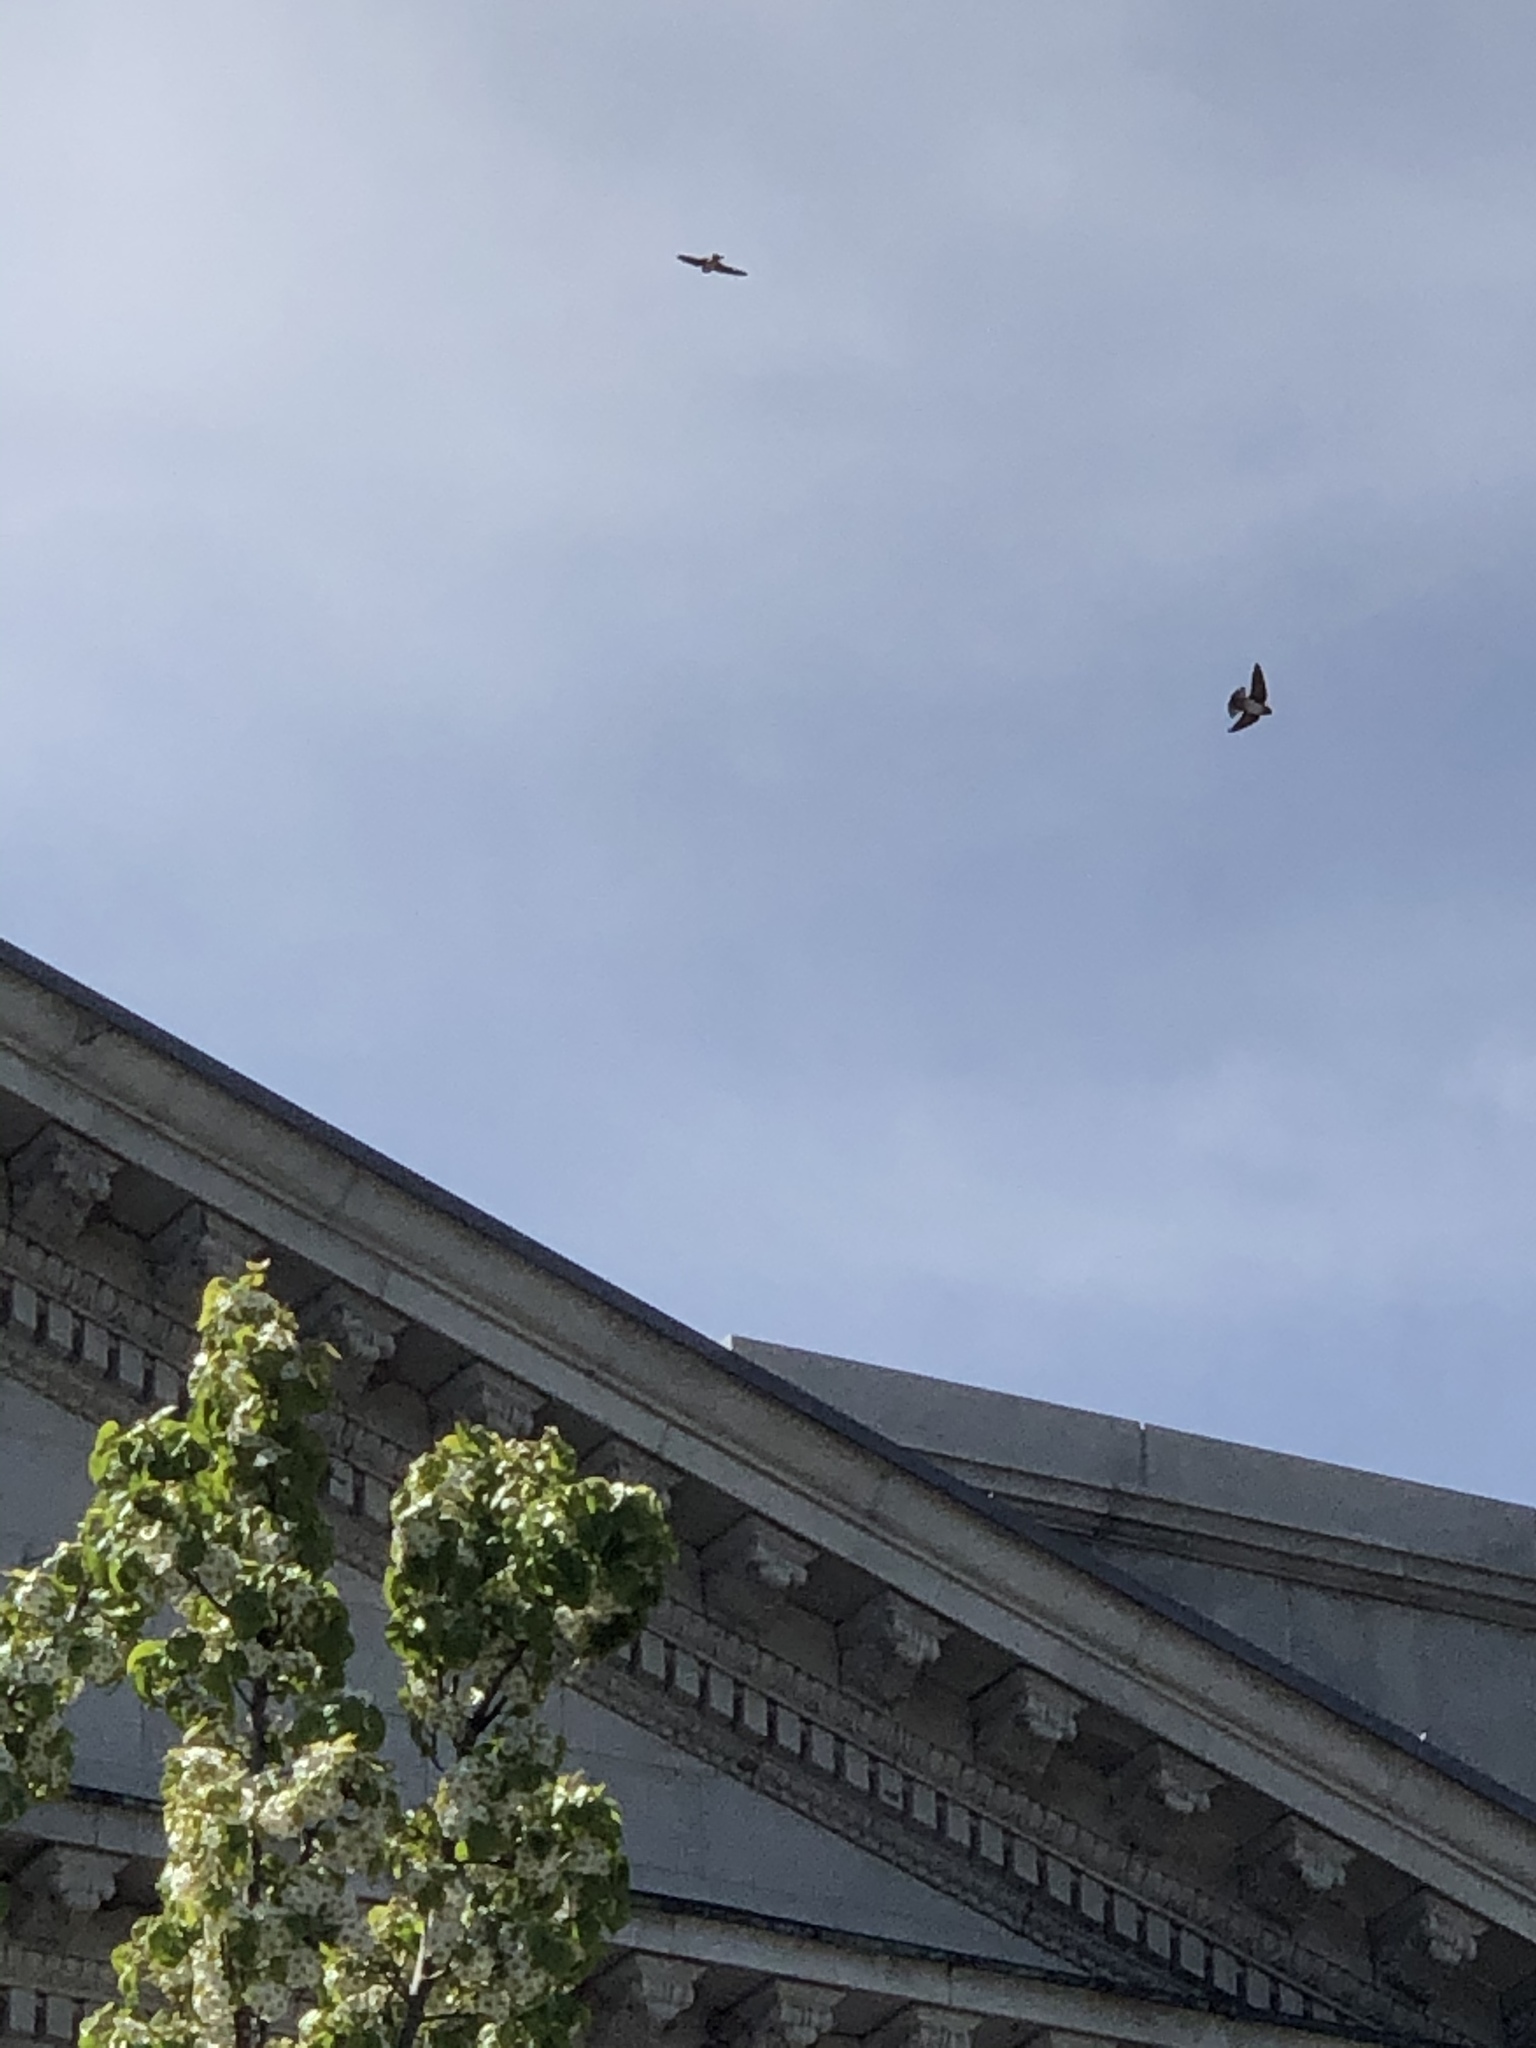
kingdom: Animalia
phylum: Chordata
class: Aves
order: Passeriformes
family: Hirundinidae
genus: Tachycineta
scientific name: Tachycineta bicolor
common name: Tree swallow
